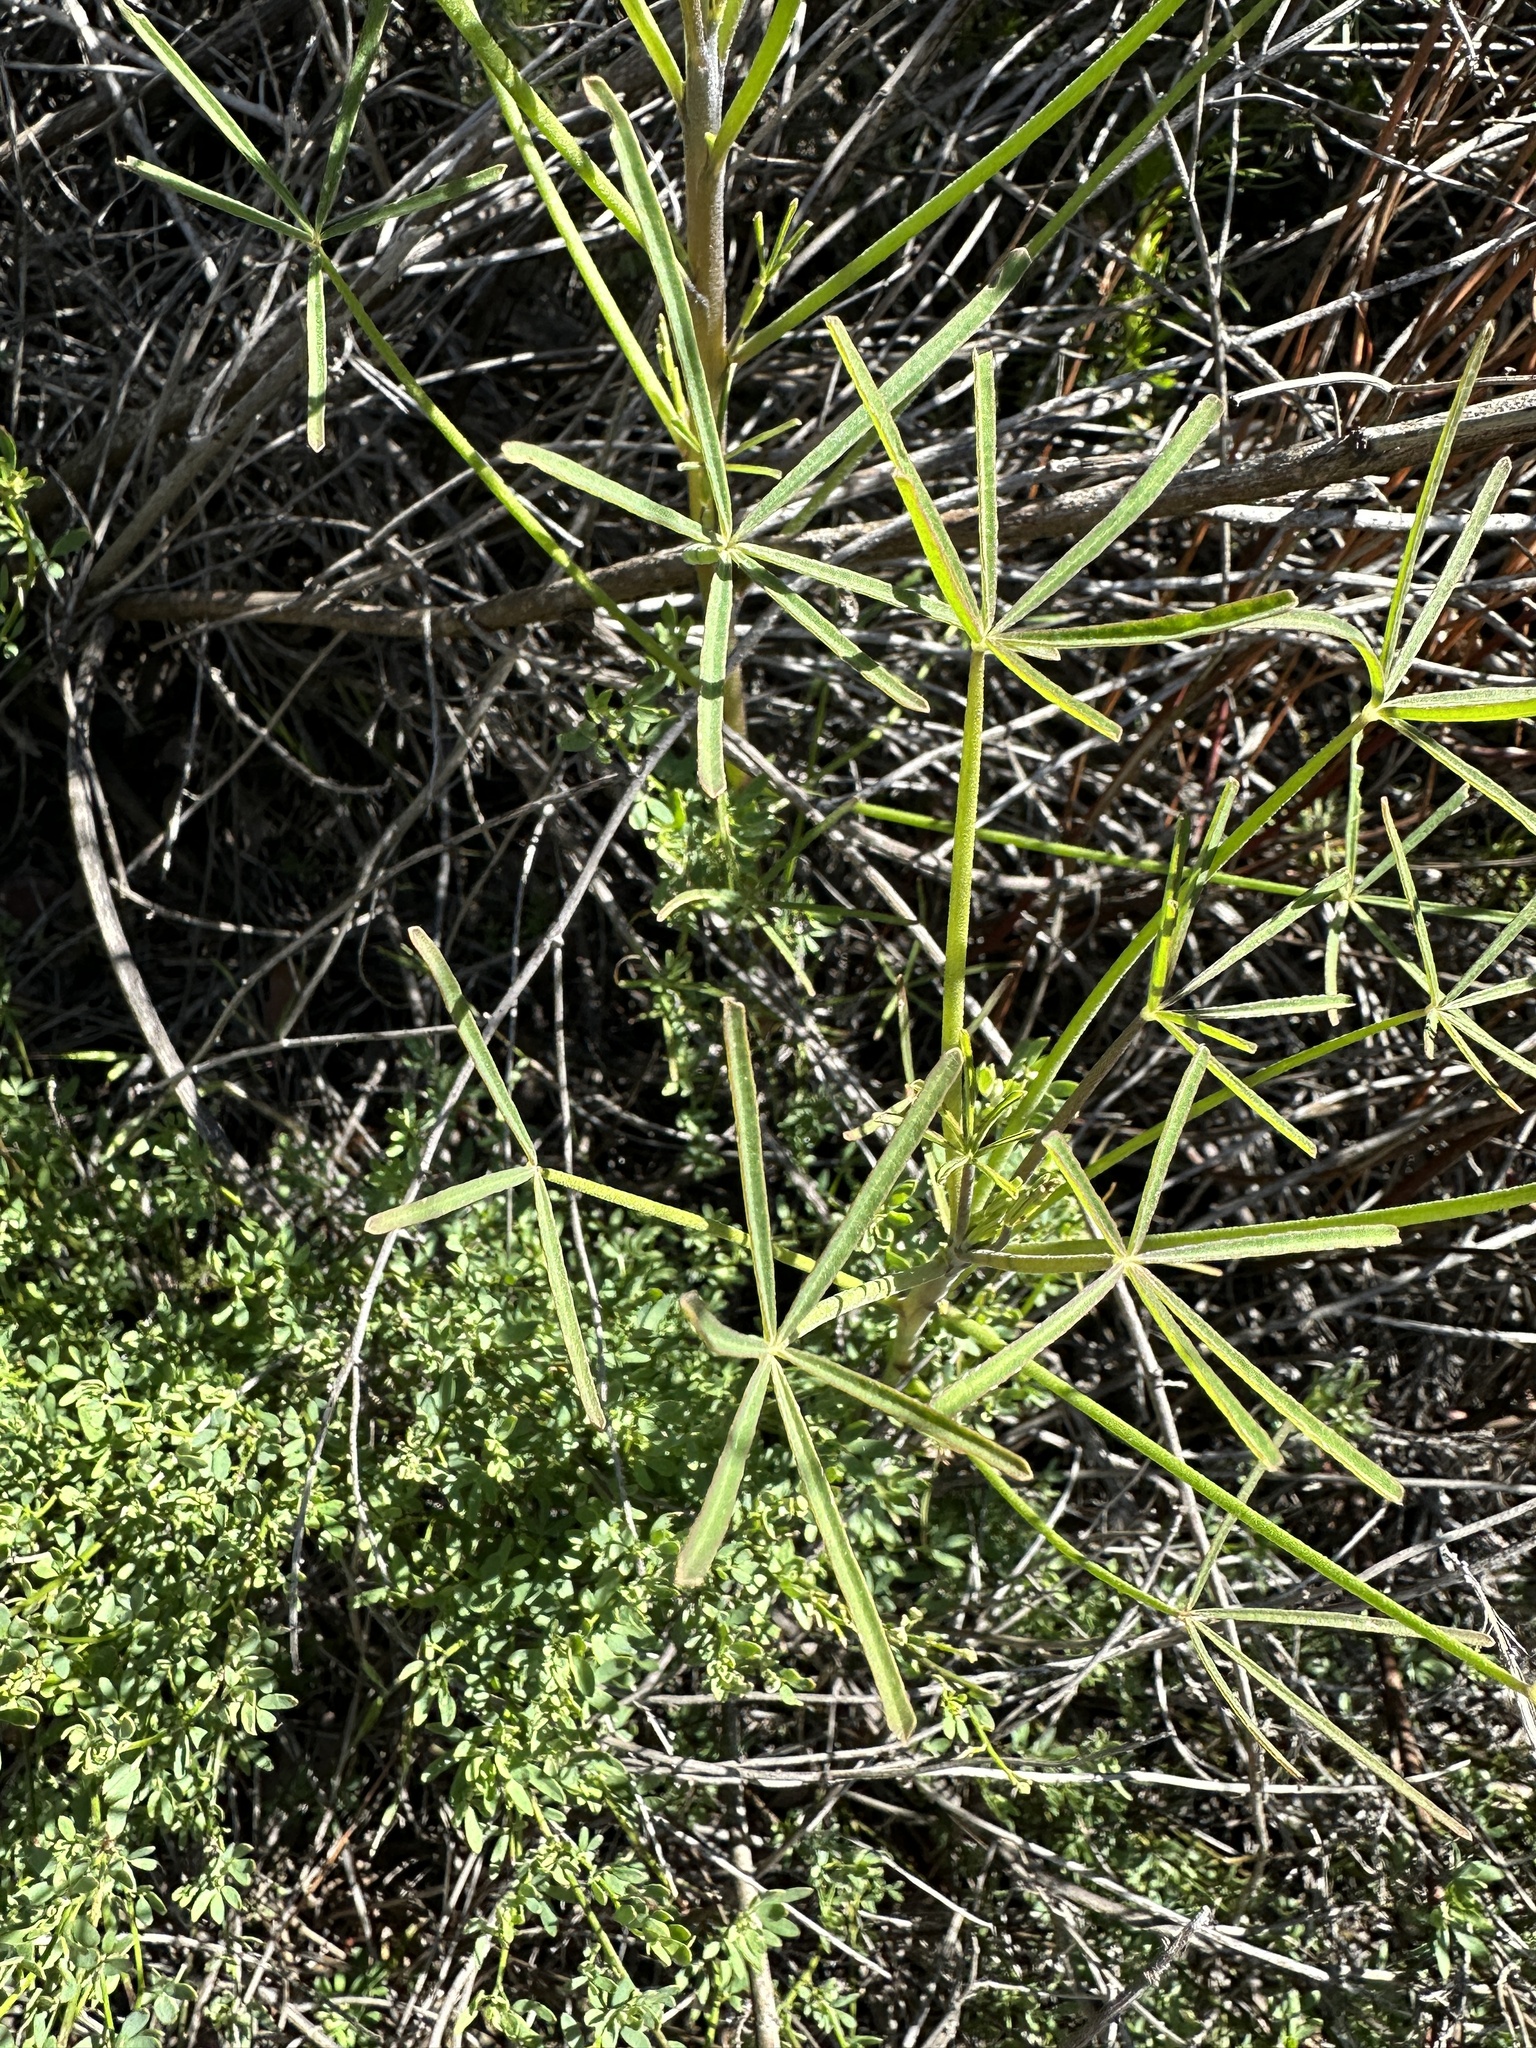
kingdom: Plantae
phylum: Tracheophyta
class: Magnoliopsida
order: Fabales
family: Fabaceae
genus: Lupinus
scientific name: Lupinus truncatus
